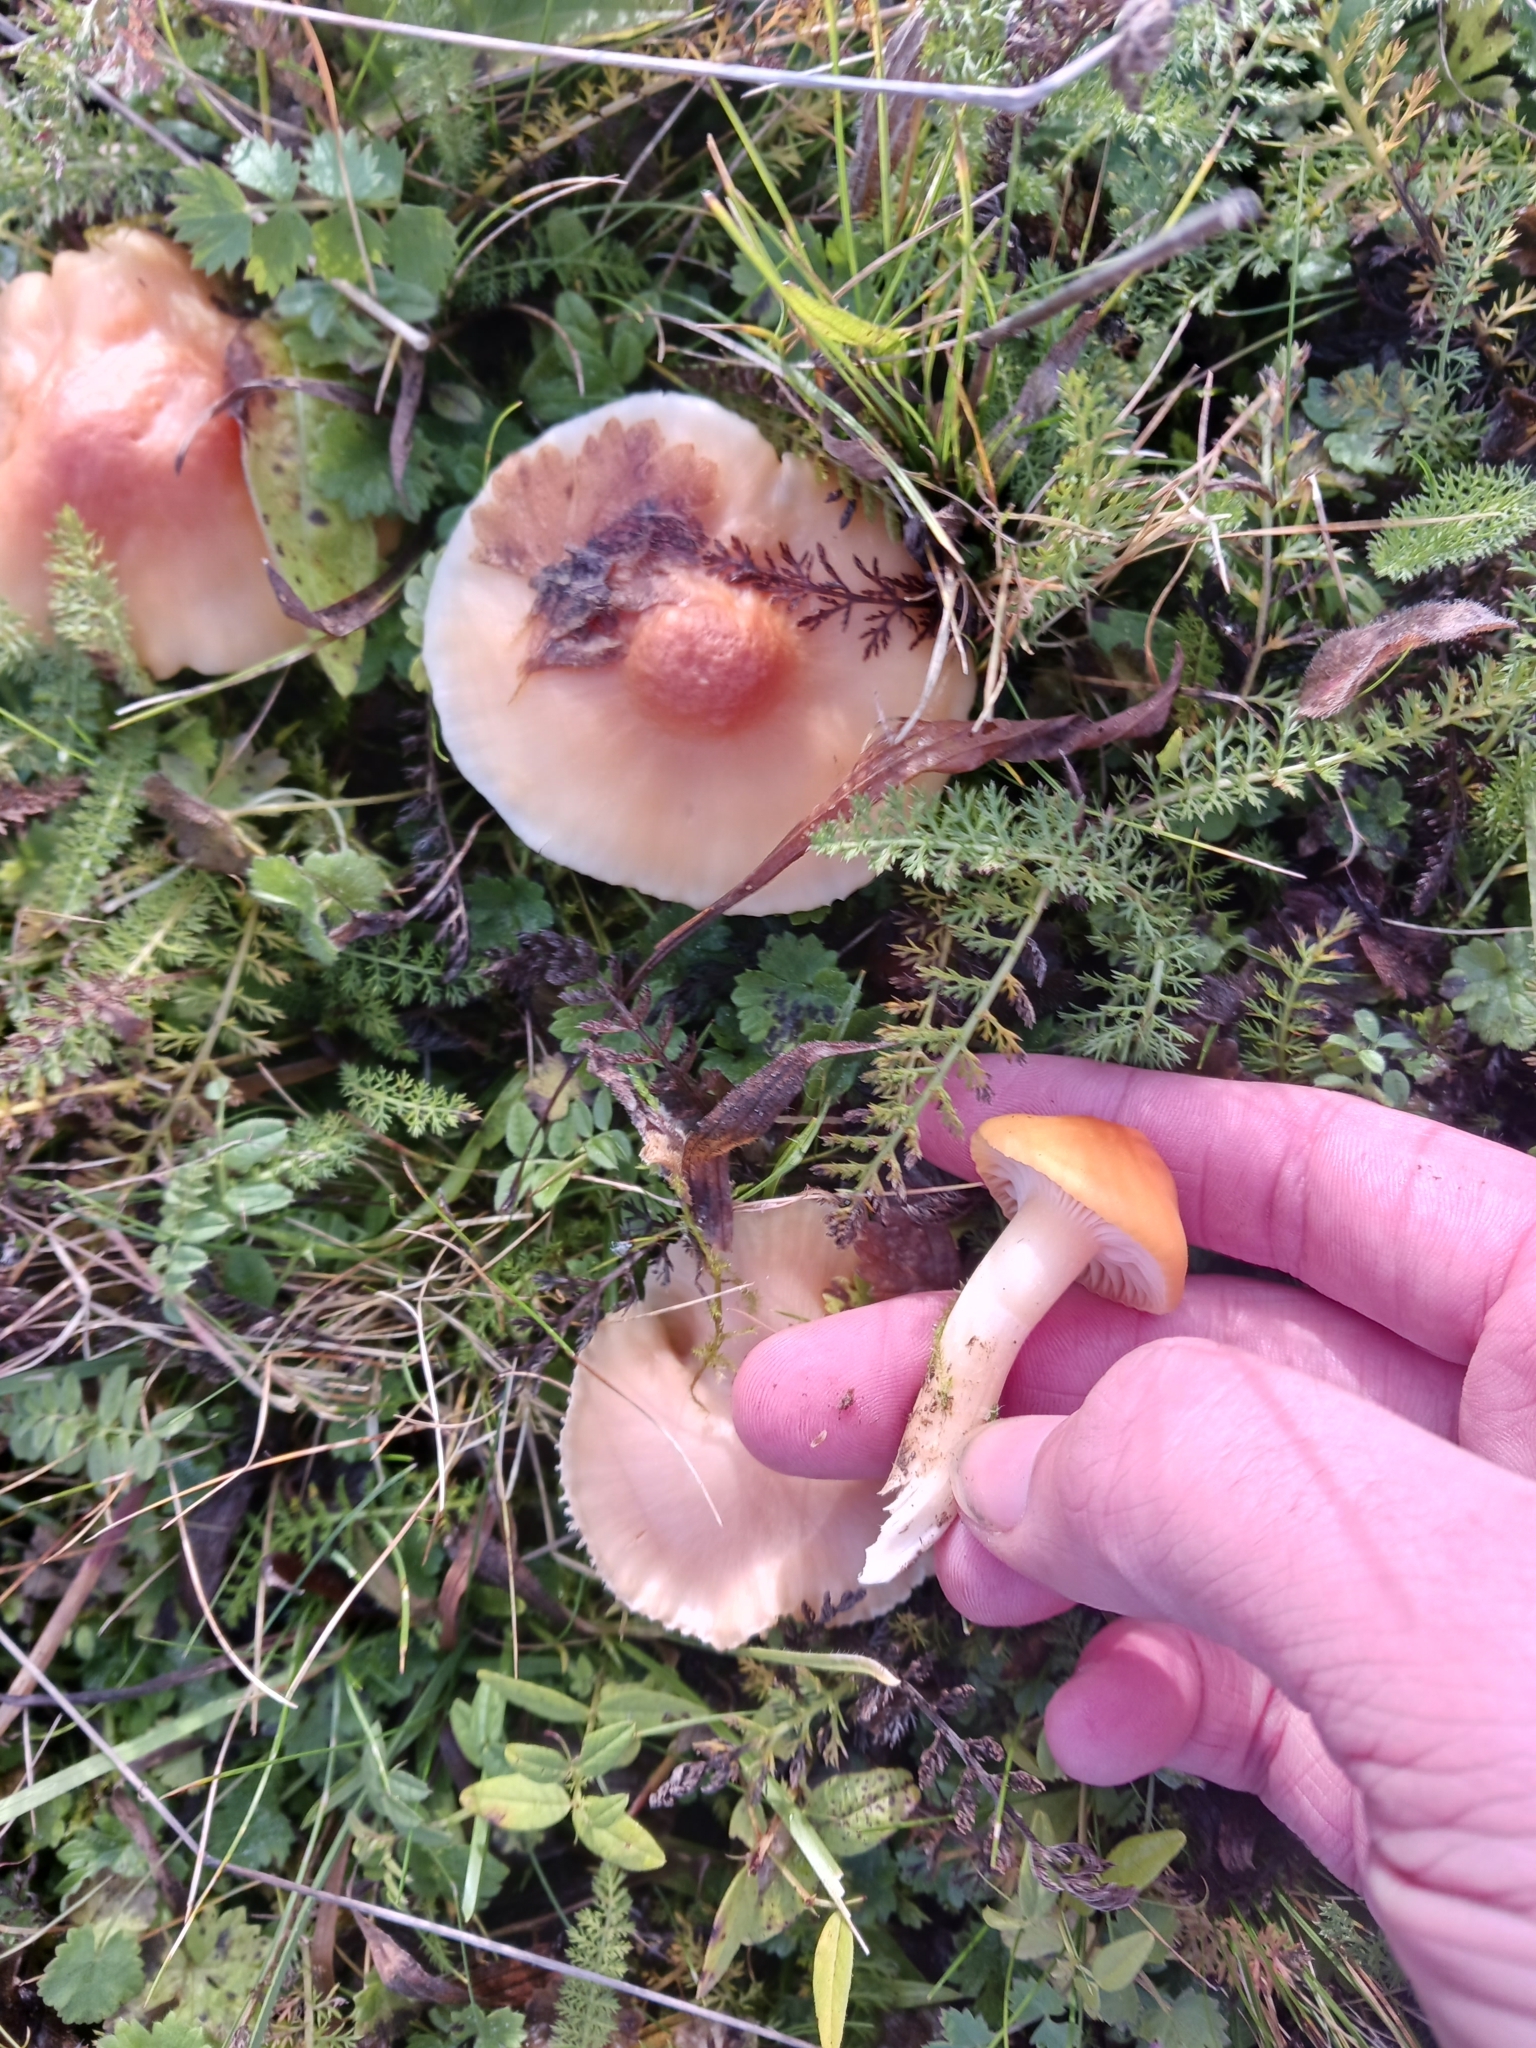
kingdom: Fungi
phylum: Basidiomycota
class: Agaricomycetes
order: Agaricales
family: Hygrophoraceae
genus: Cuphophyllus
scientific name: Cuphophyllus pratensis
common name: Meadow waxcap
